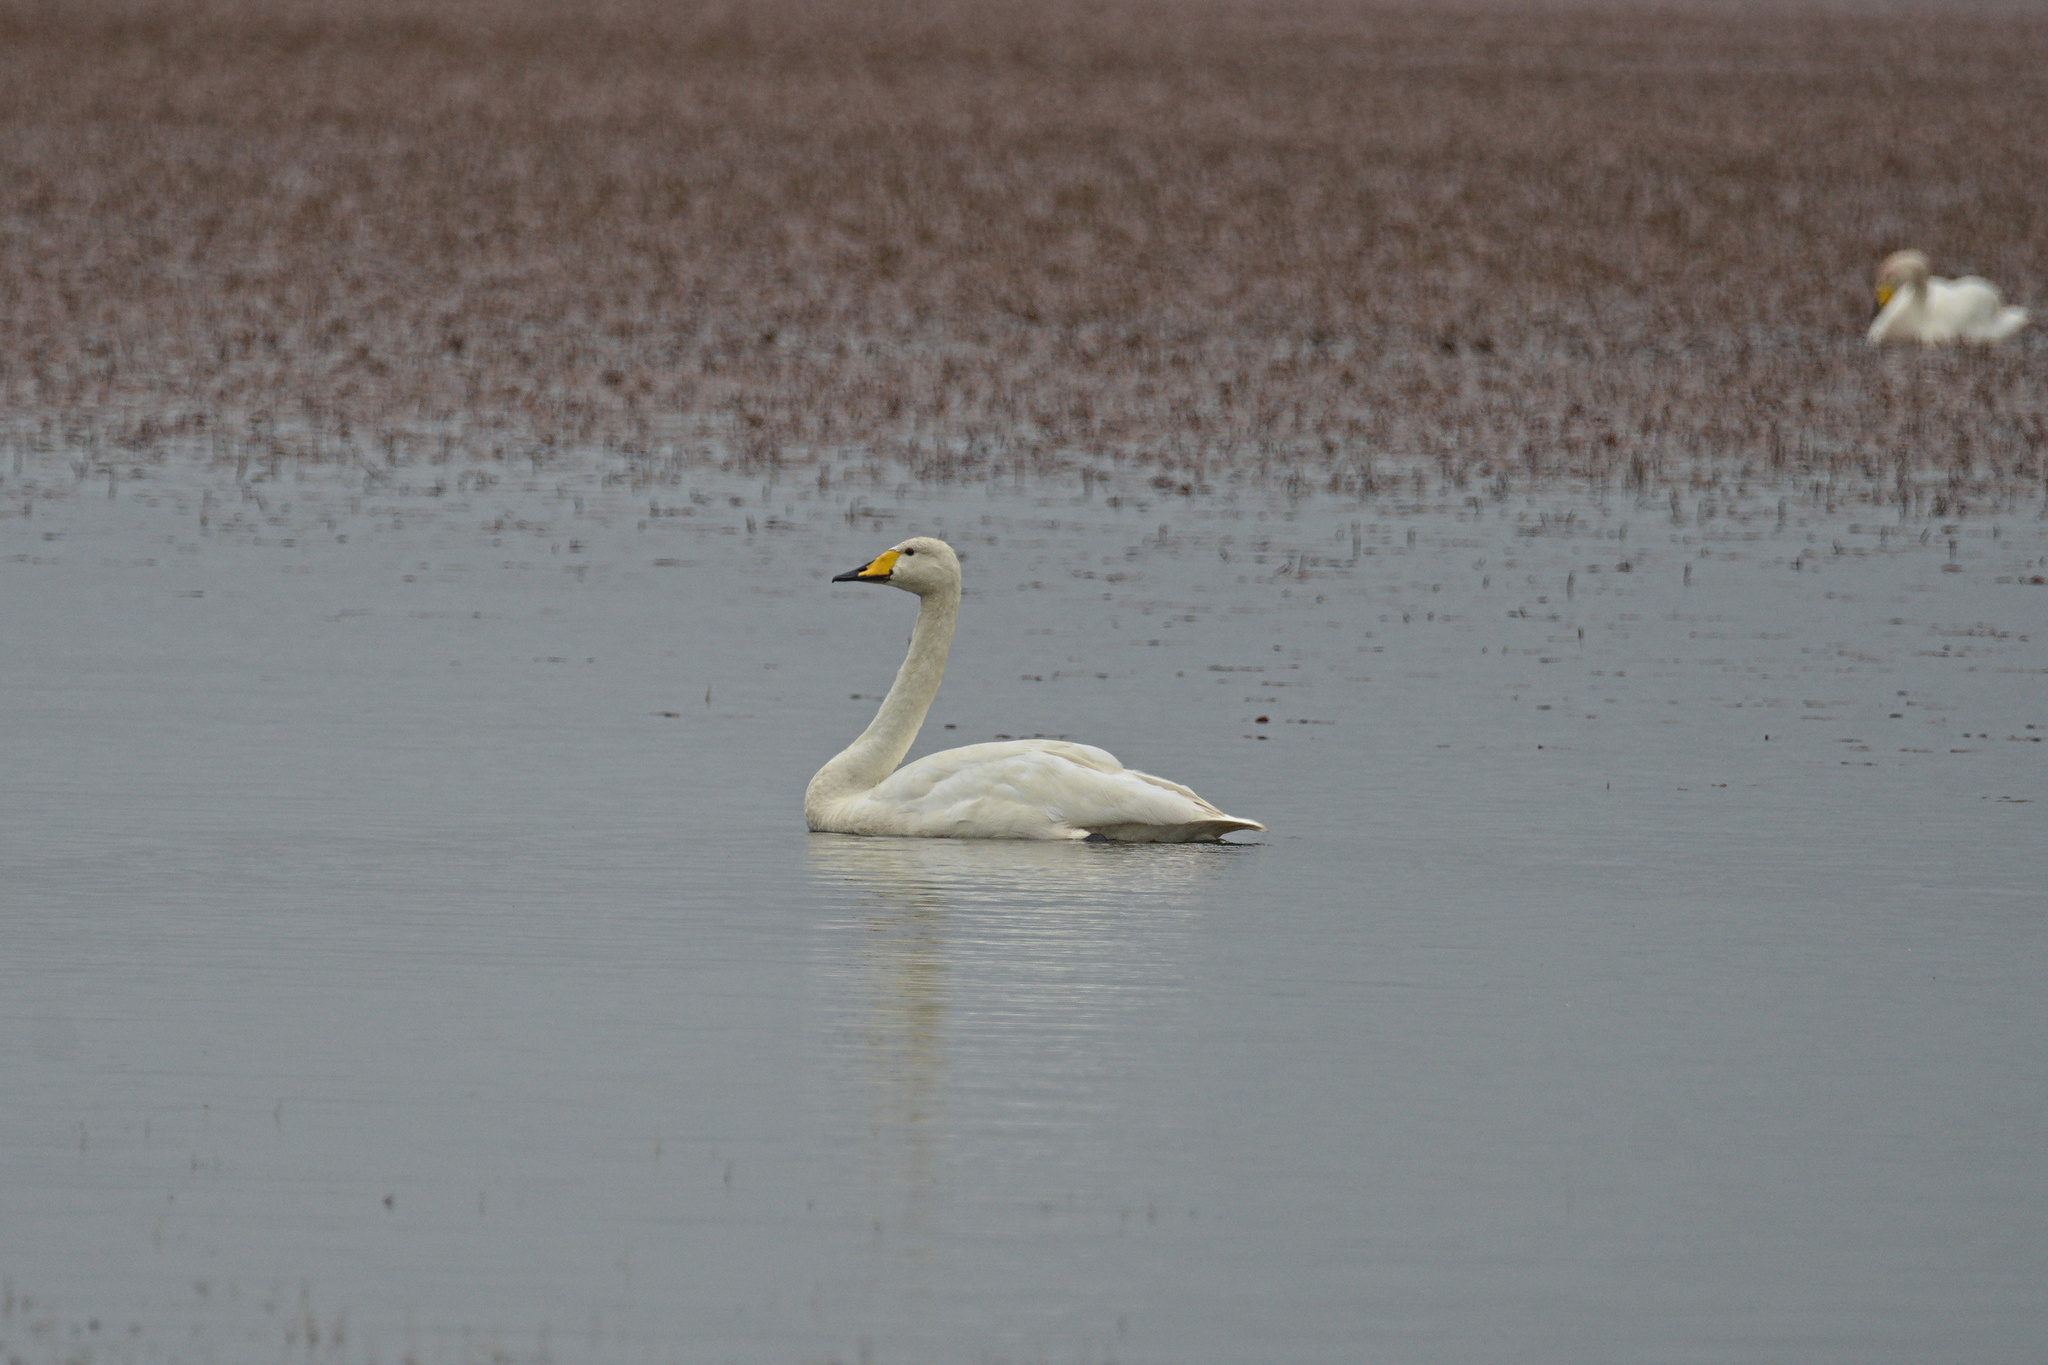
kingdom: Animalia
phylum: Chordata
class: Aves
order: Anseriformes
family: Anatidae
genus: Cygnus
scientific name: Cygnus cygnus
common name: Whooper swan
